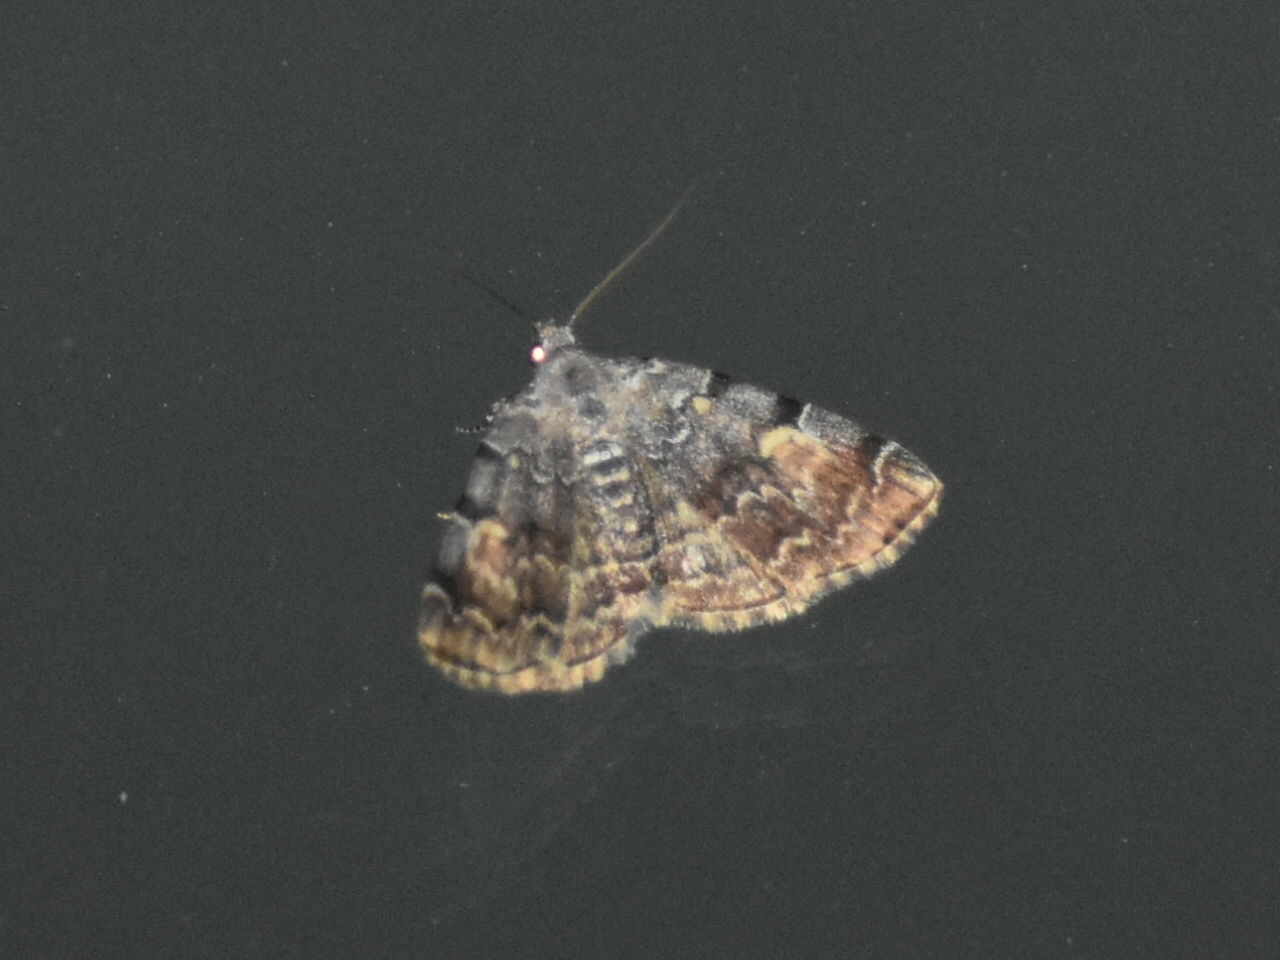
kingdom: Animalia
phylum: Arthropoda
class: Insecta
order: Lepidoptera
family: Erebidae
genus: Idia
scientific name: Idia americalis
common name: American idia moth
